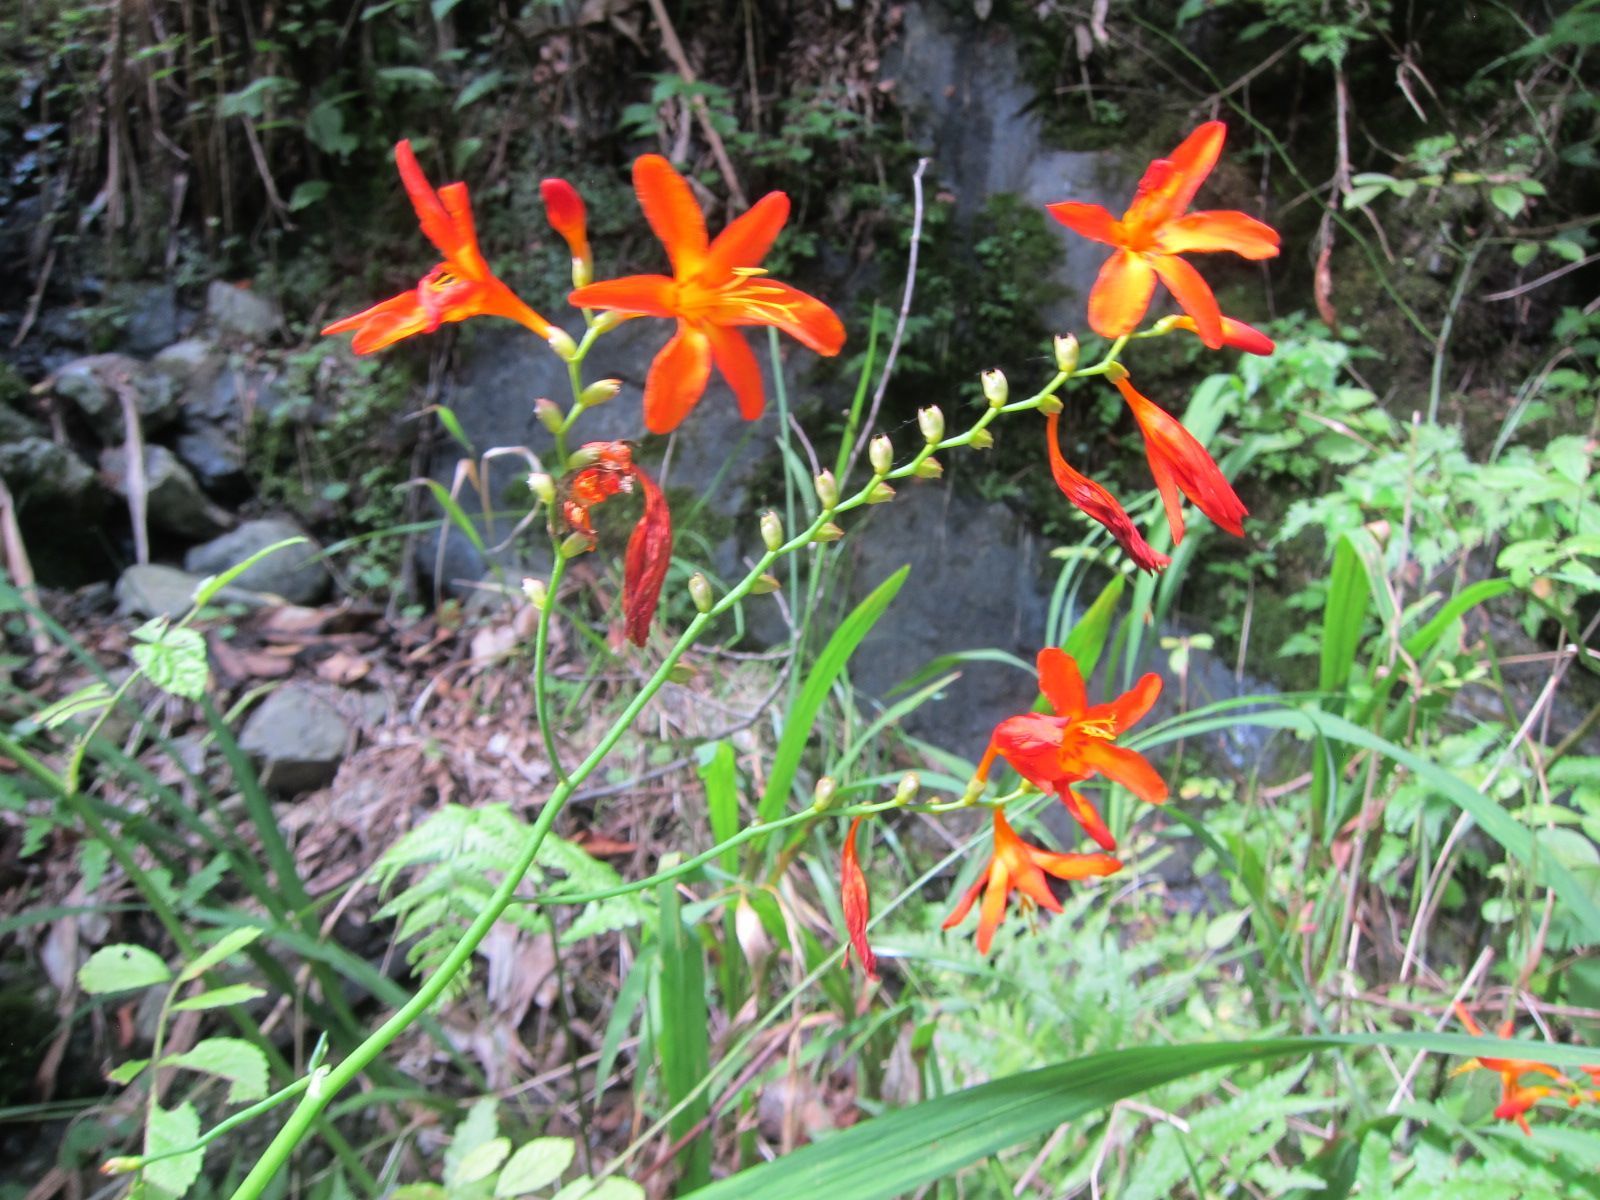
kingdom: Plantae
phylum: Tracheophyta
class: Liliopsida
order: Asparagales
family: Iridaceae
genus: Crocosmia
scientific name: Crocosmia crocosmiiflora
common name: Montbretia
